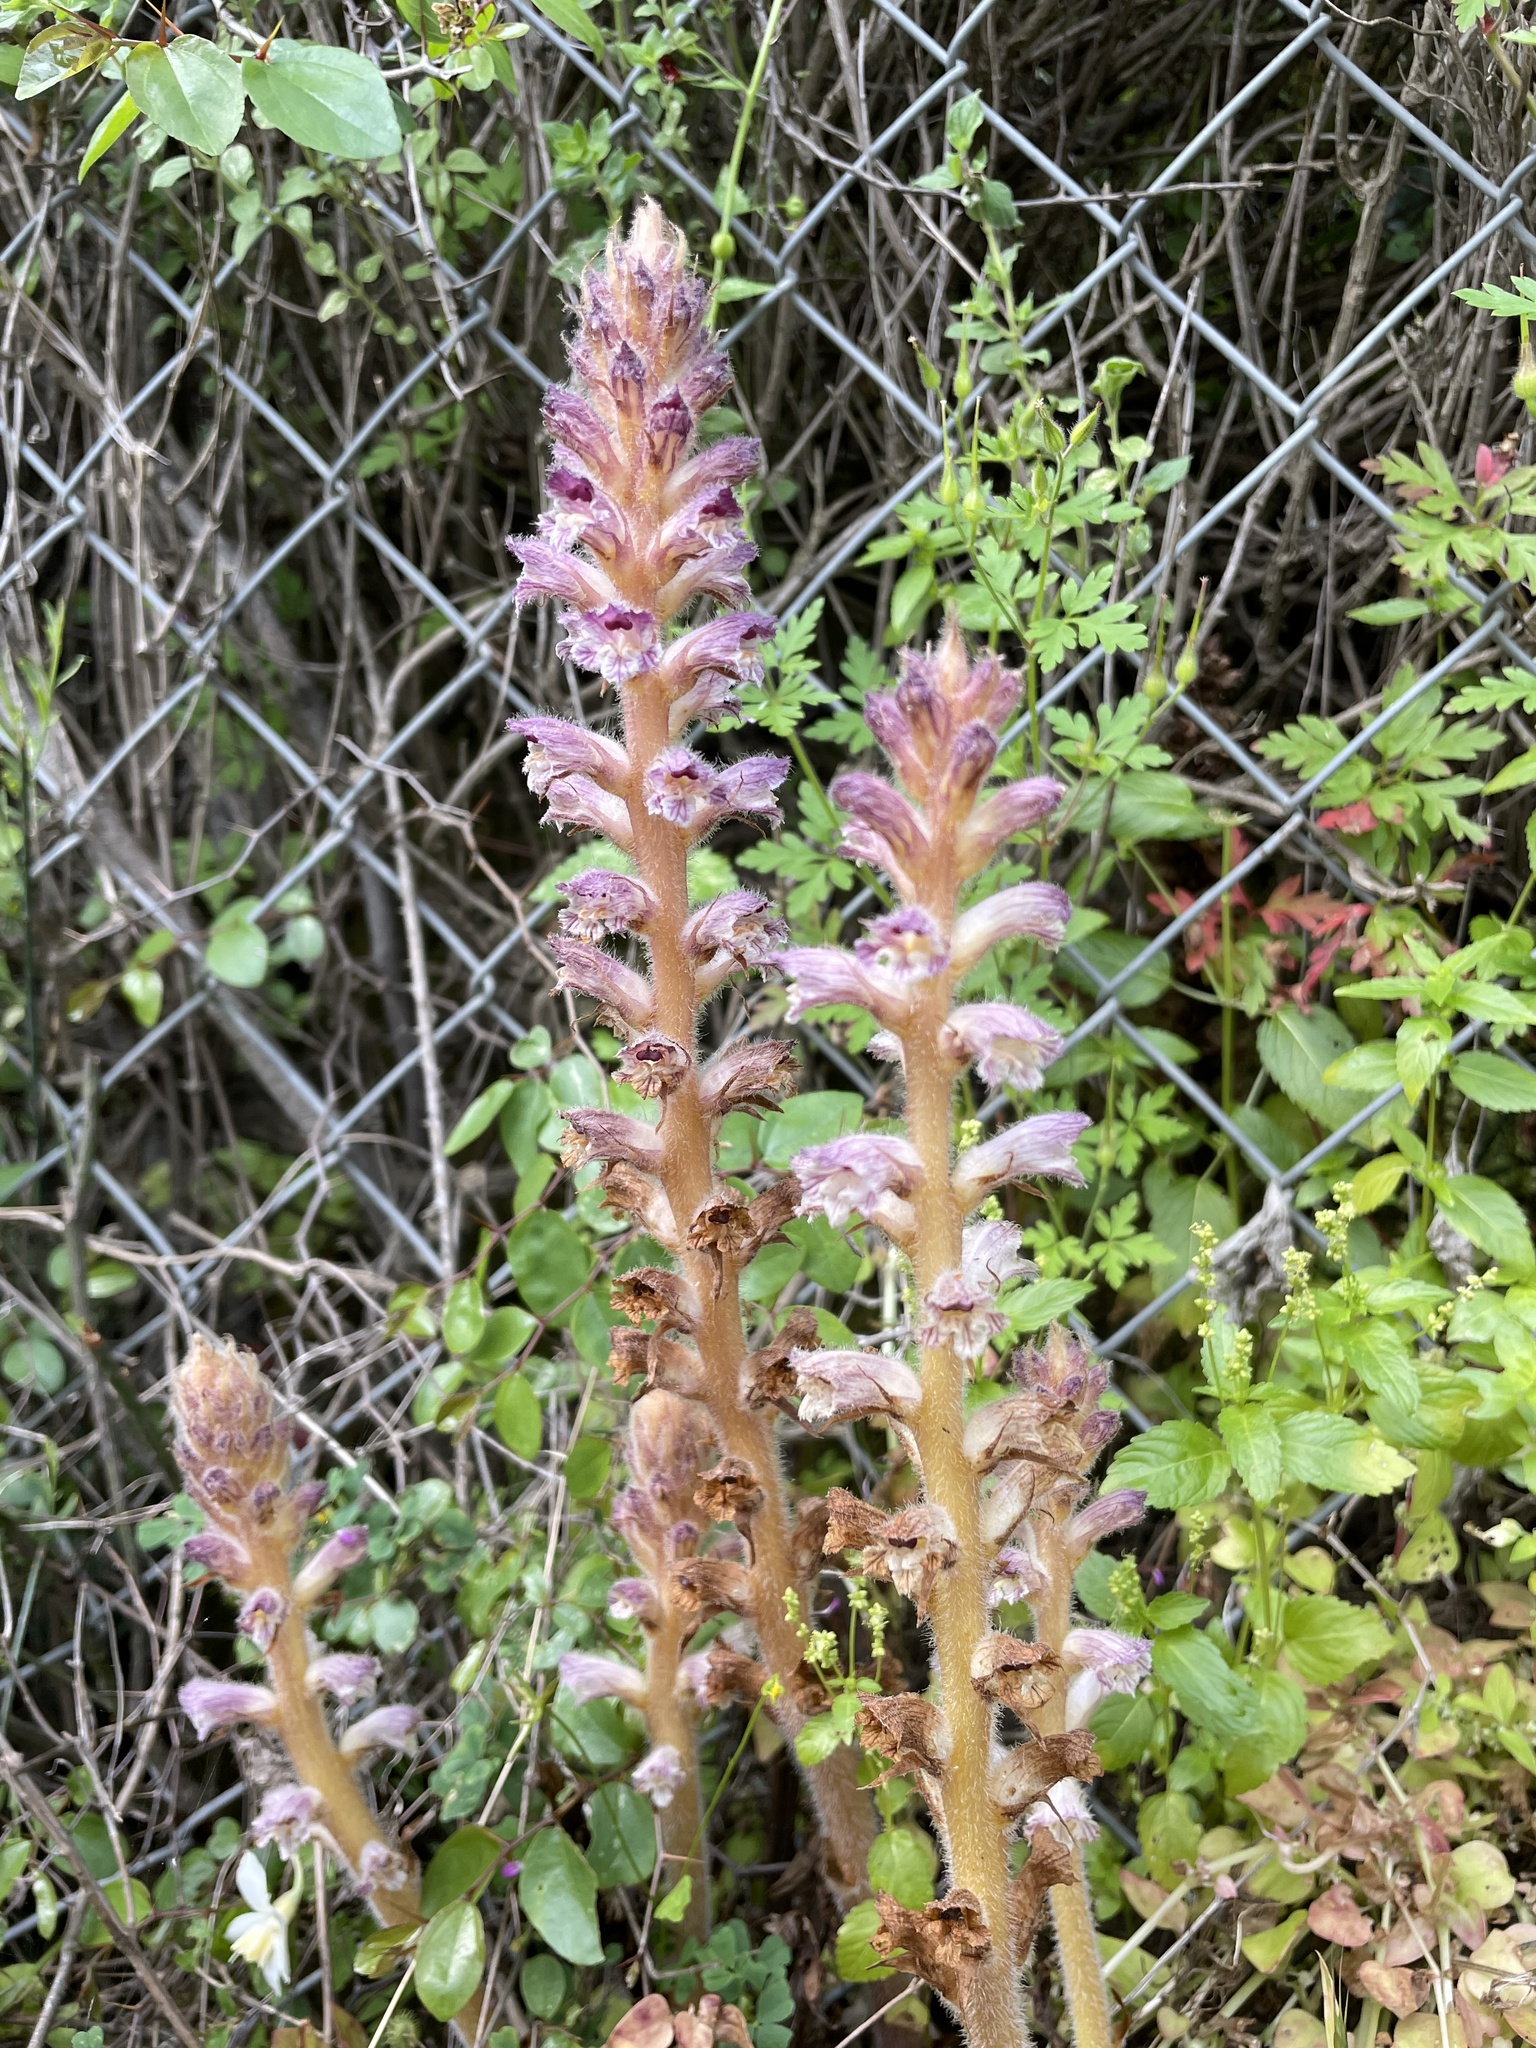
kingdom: Plantae
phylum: Tracheophyta
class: Magnoliopsida
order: Lamiales
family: Orobanchaceae
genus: Orobanche
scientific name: Orobanche pubescens
